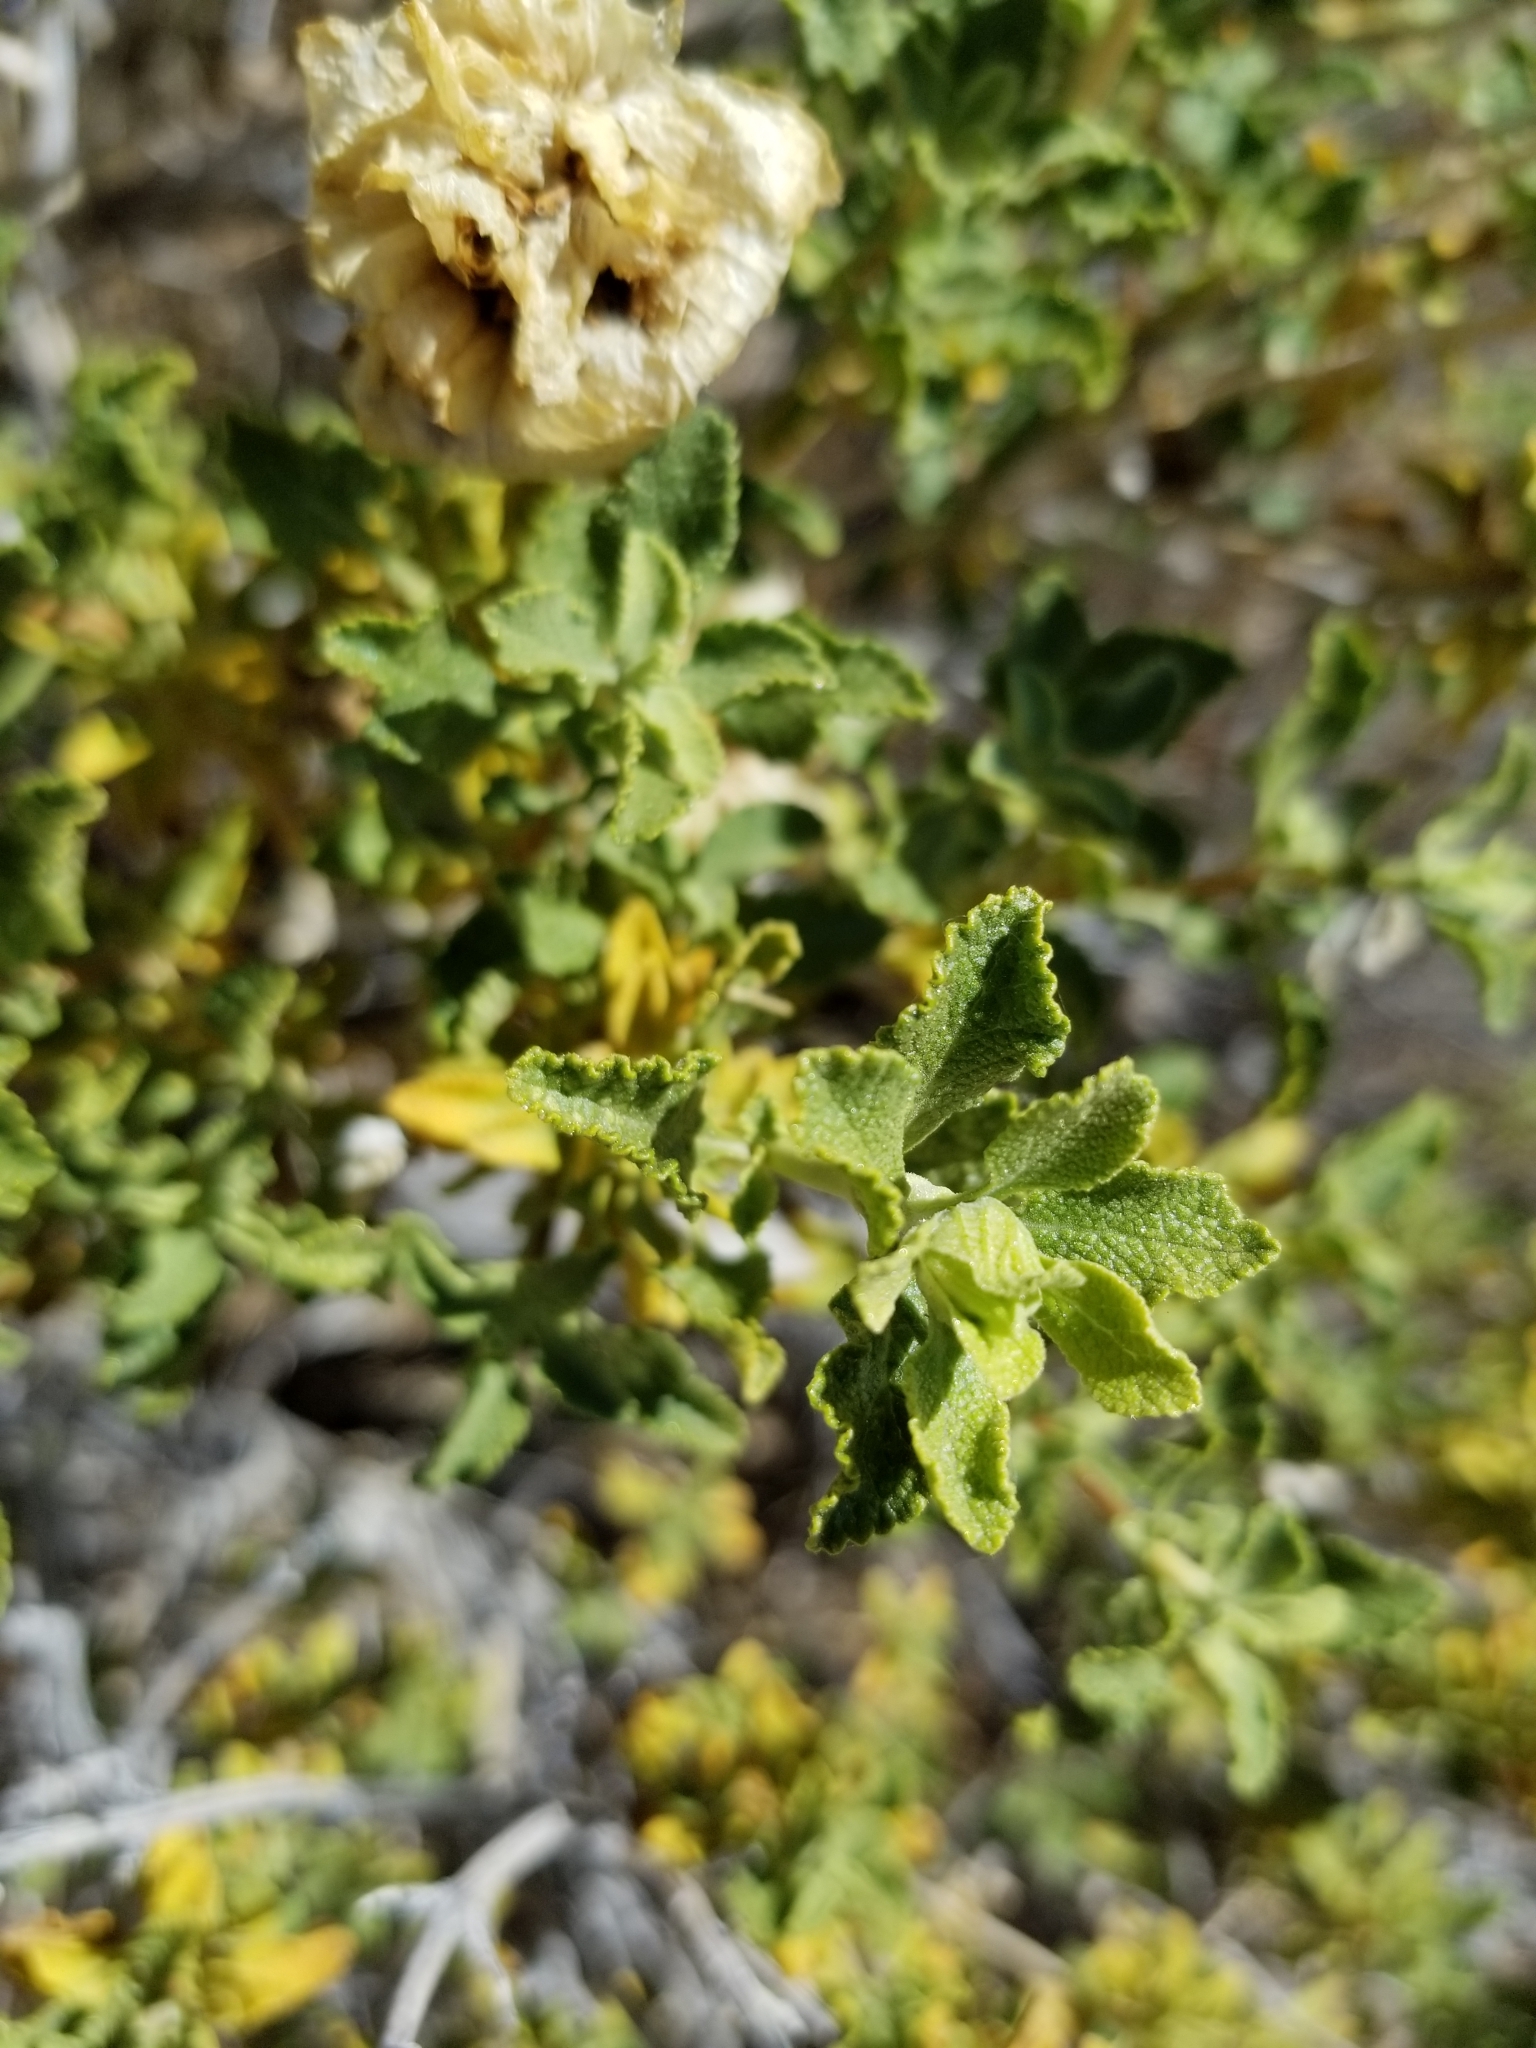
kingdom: Plantae
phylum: Tracheophyta
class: Magnoliopsida
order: Lamiales
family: Lamiaceae
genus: Salvia
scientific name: Salvia mohavensis
